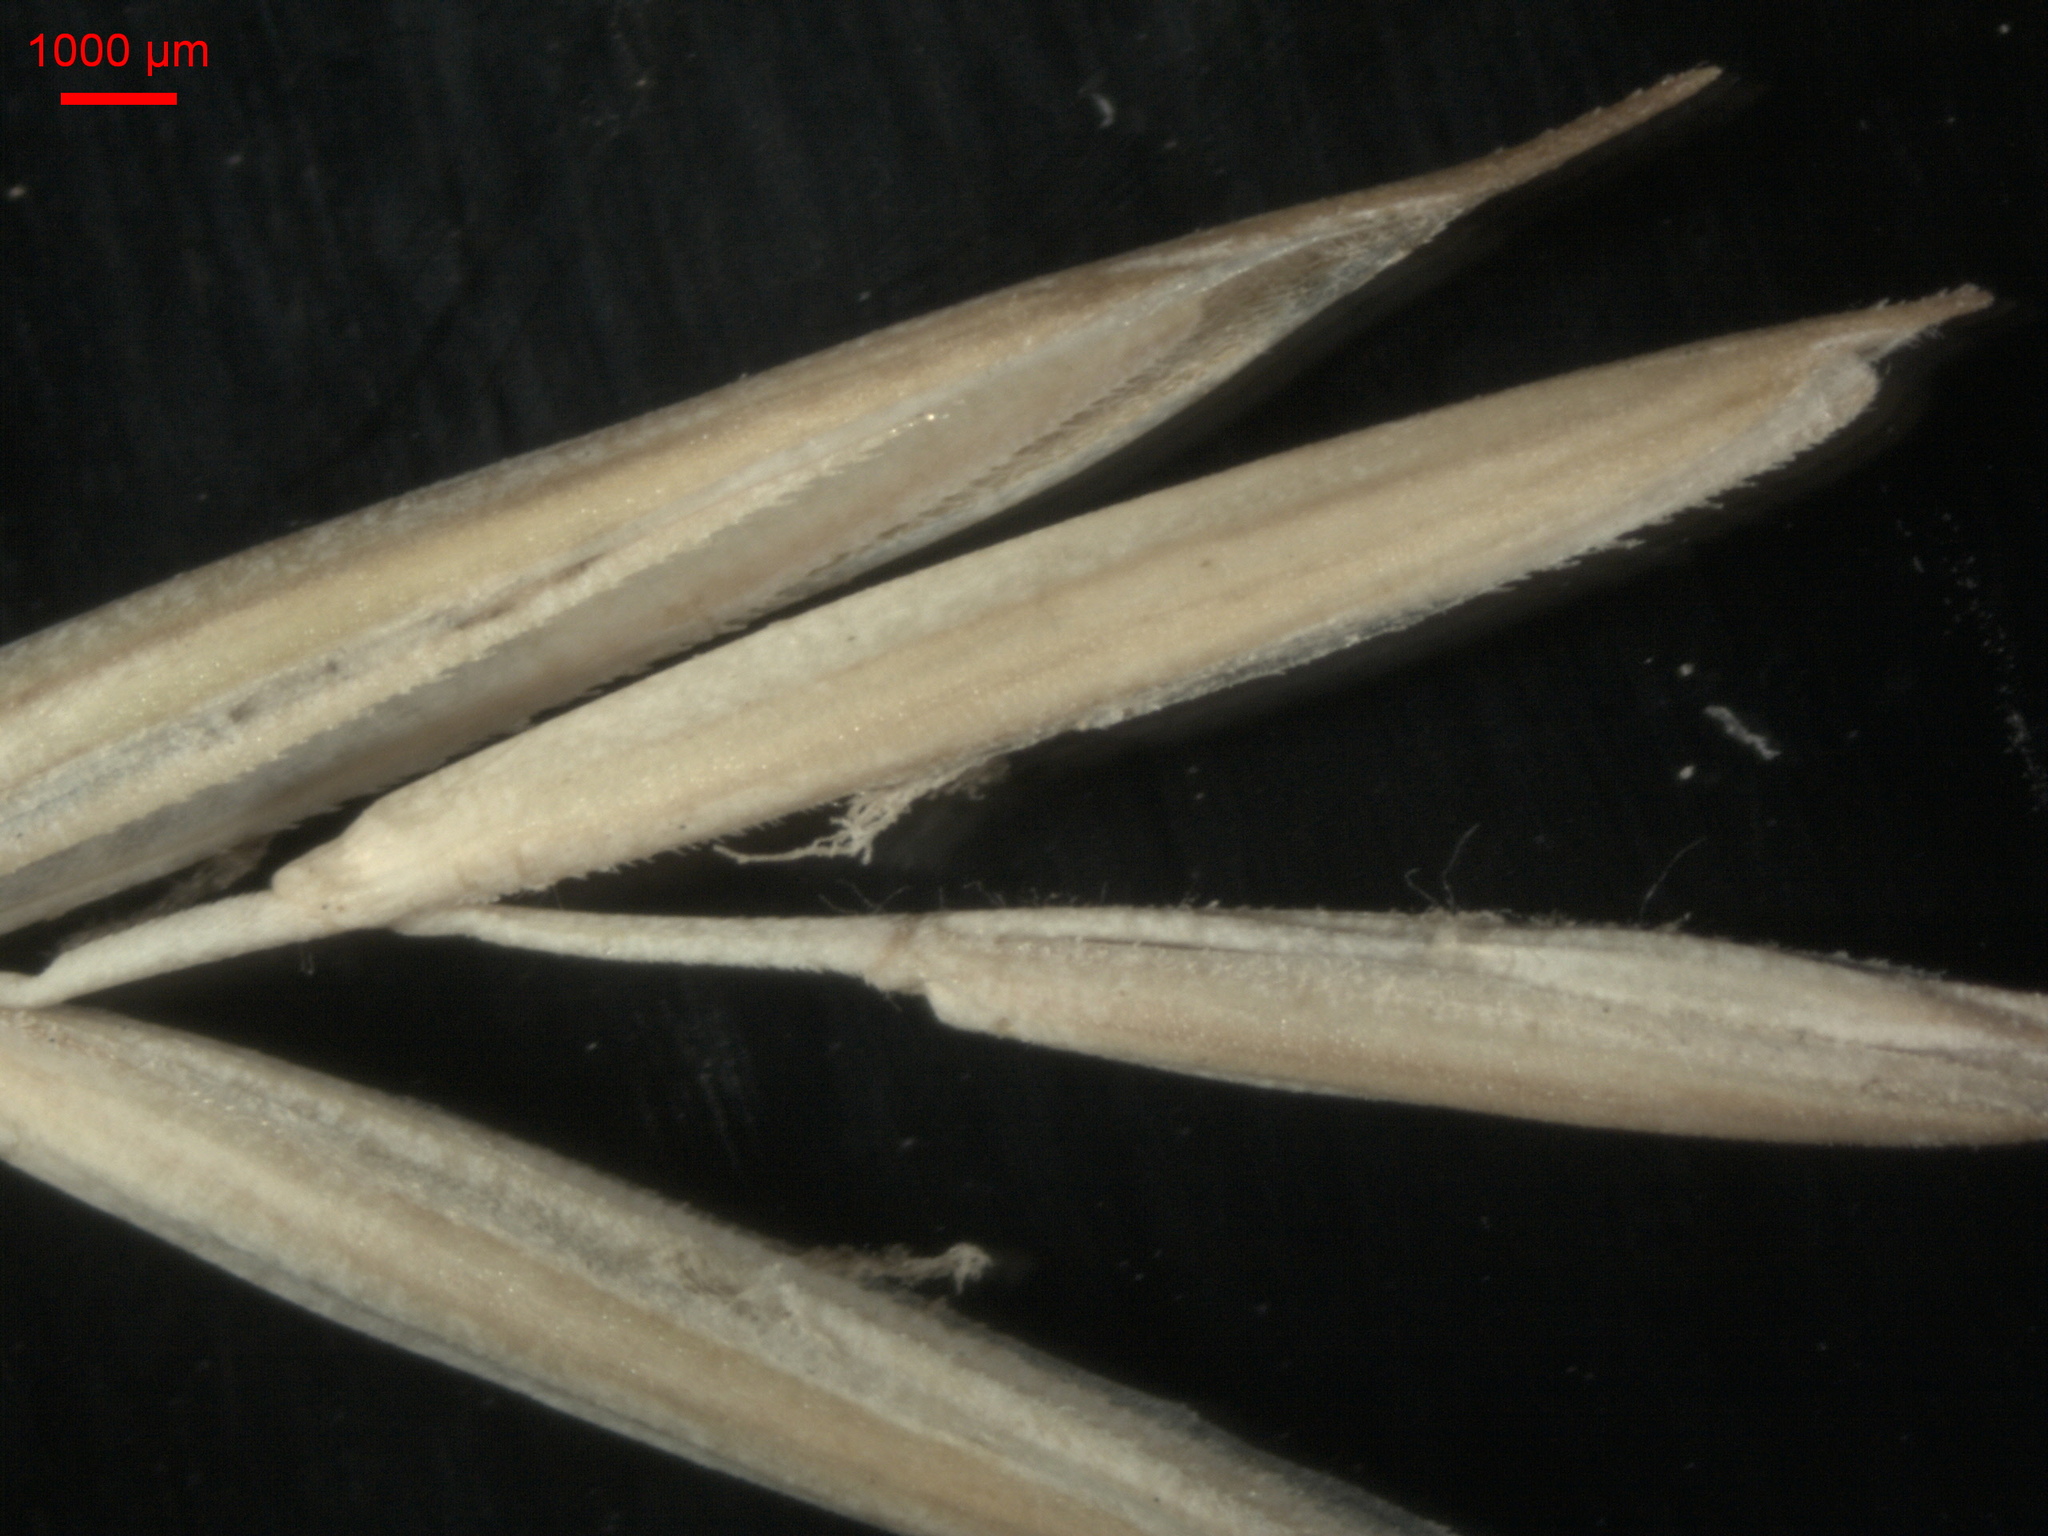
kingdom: Plantae
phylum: Tracheophyta
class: Liliopsida
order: Poales
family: Poaceae
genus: Elymus
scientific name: Elymus repens
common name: Quackgrass
